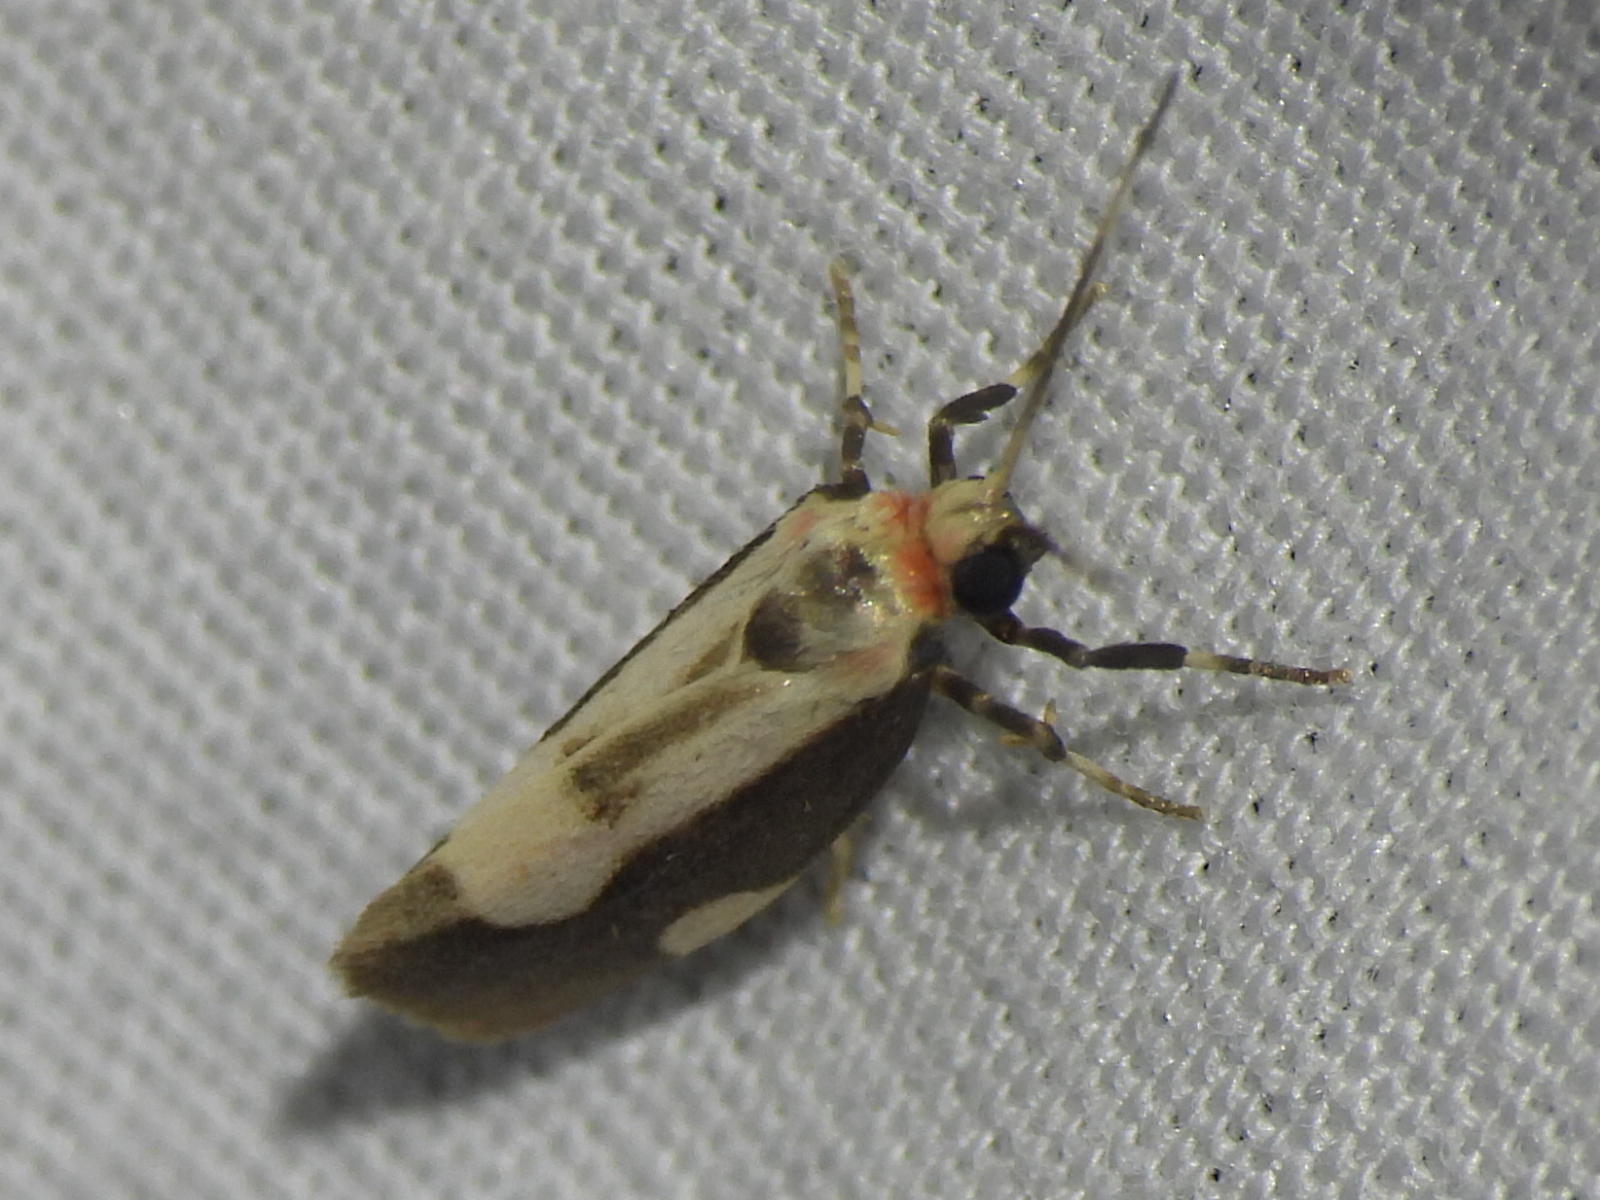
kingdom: Animalia
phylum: Arthropoda
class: Insecta
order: Lepidoptera
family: Erebidae
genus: Cisthene
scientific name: Cisthene conjuncta
